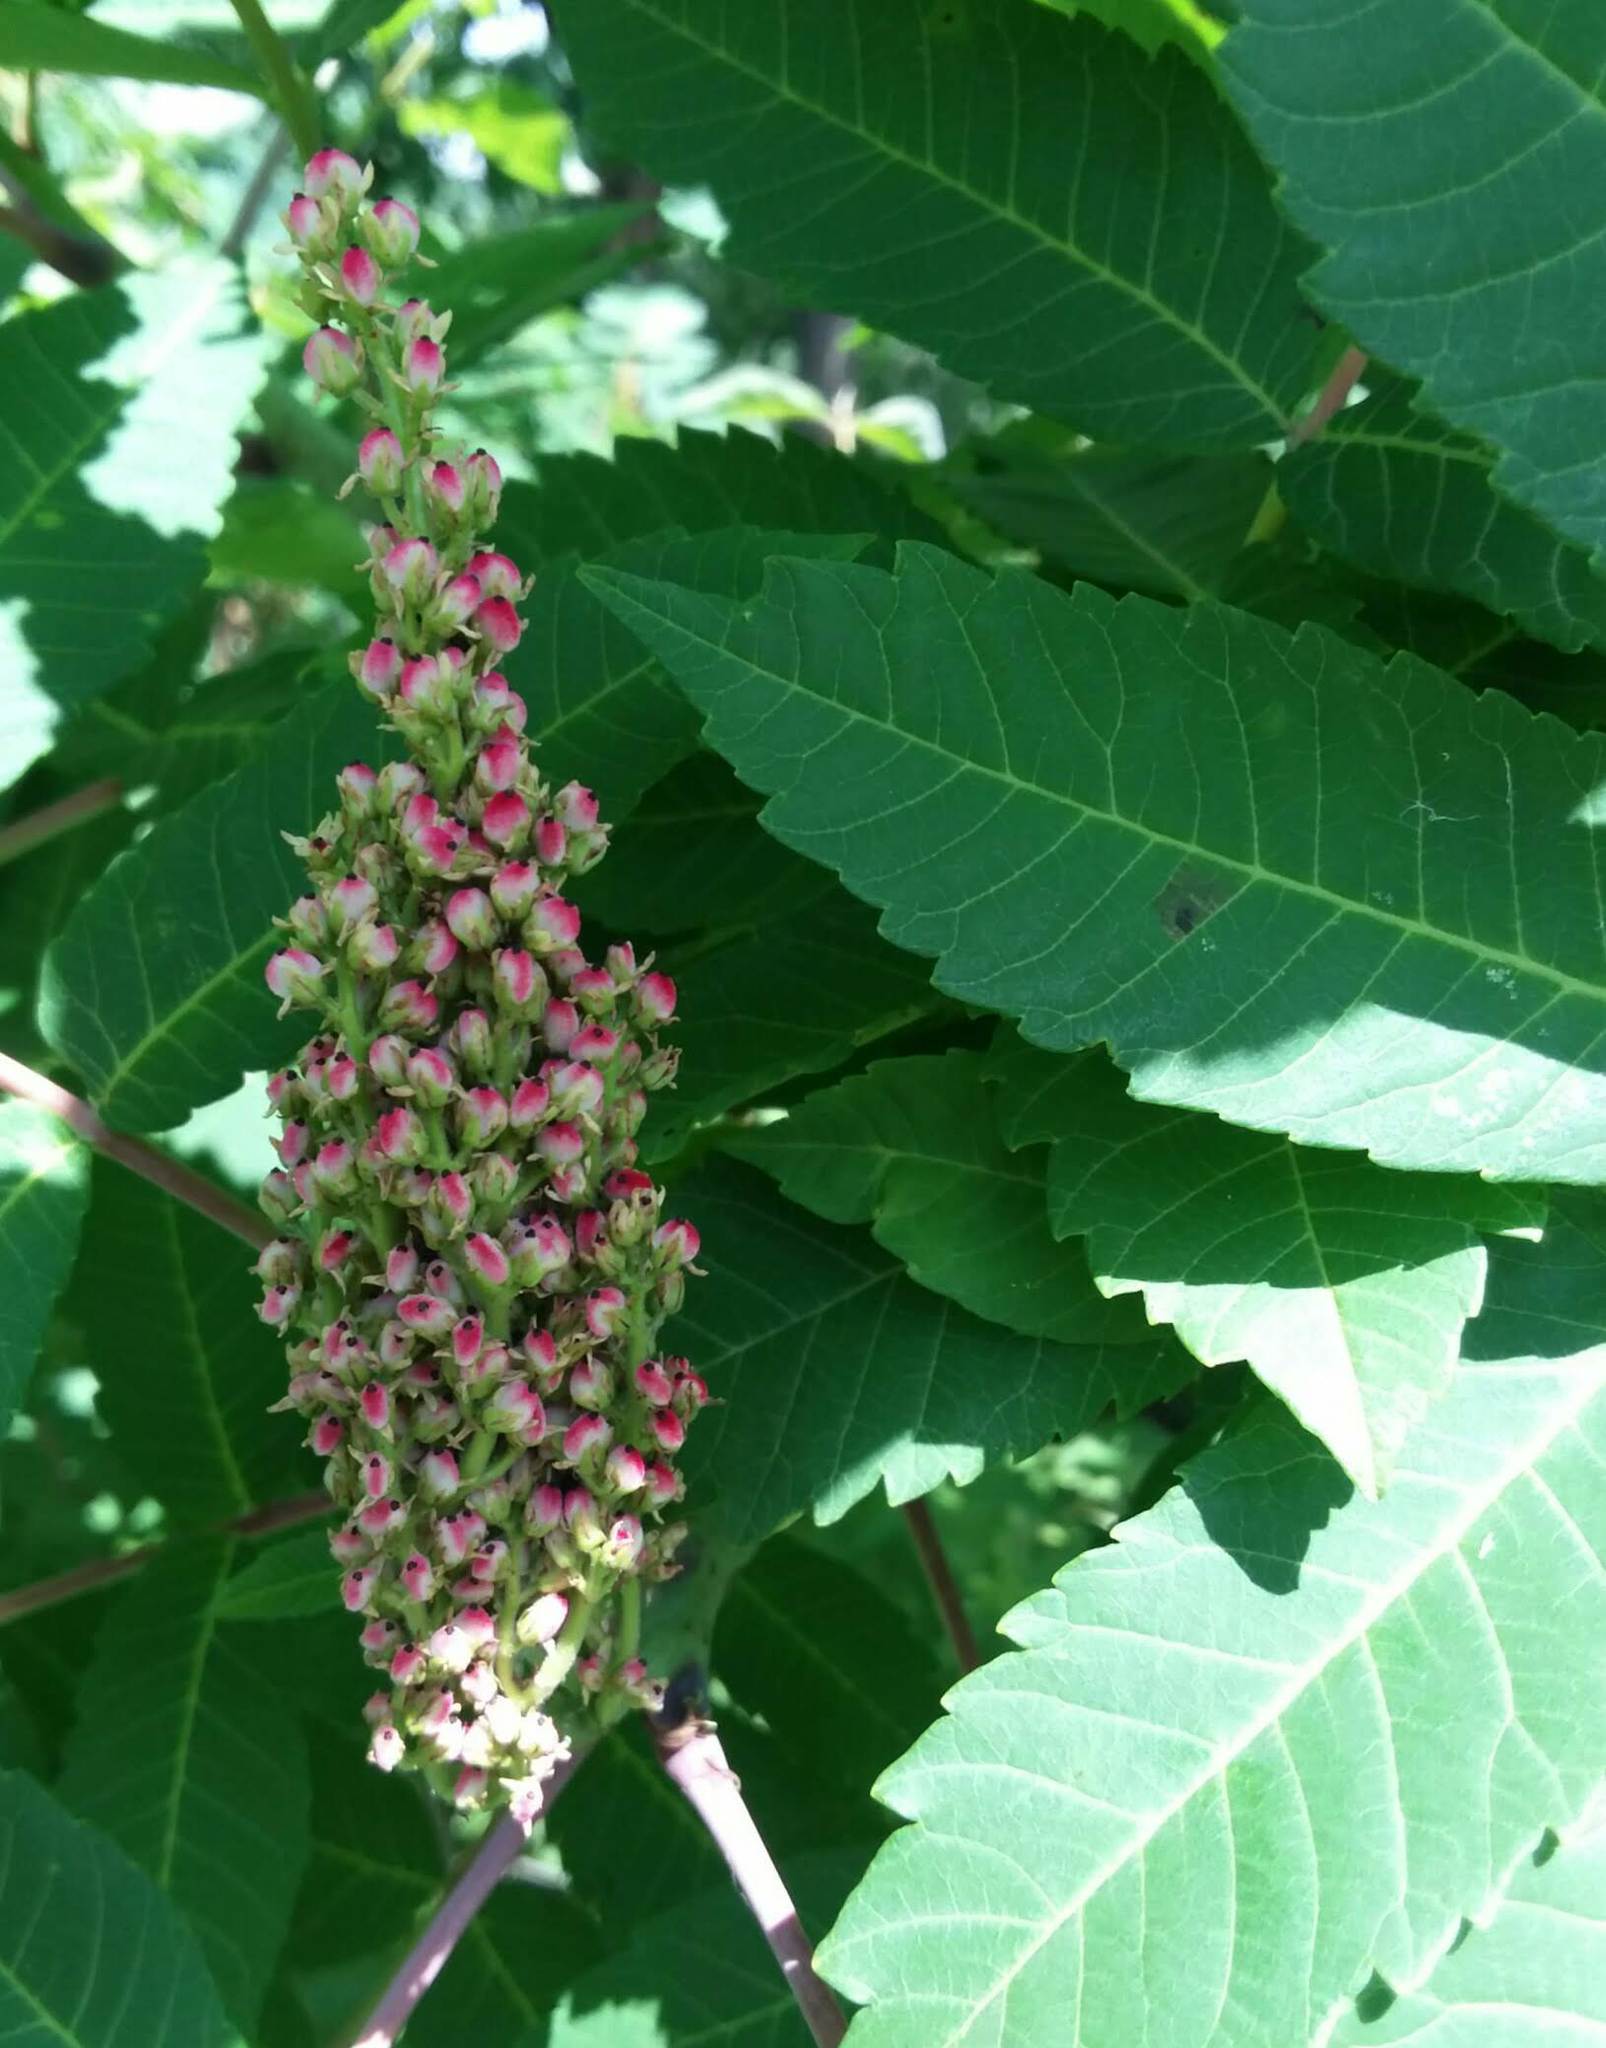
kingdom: Plantae
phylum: Tracheophyta
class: Magnoliopsida
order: Sapindales
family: Anacardiaceae
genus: Rhus
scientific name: Rhus glabra
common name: Scarlet sumac
